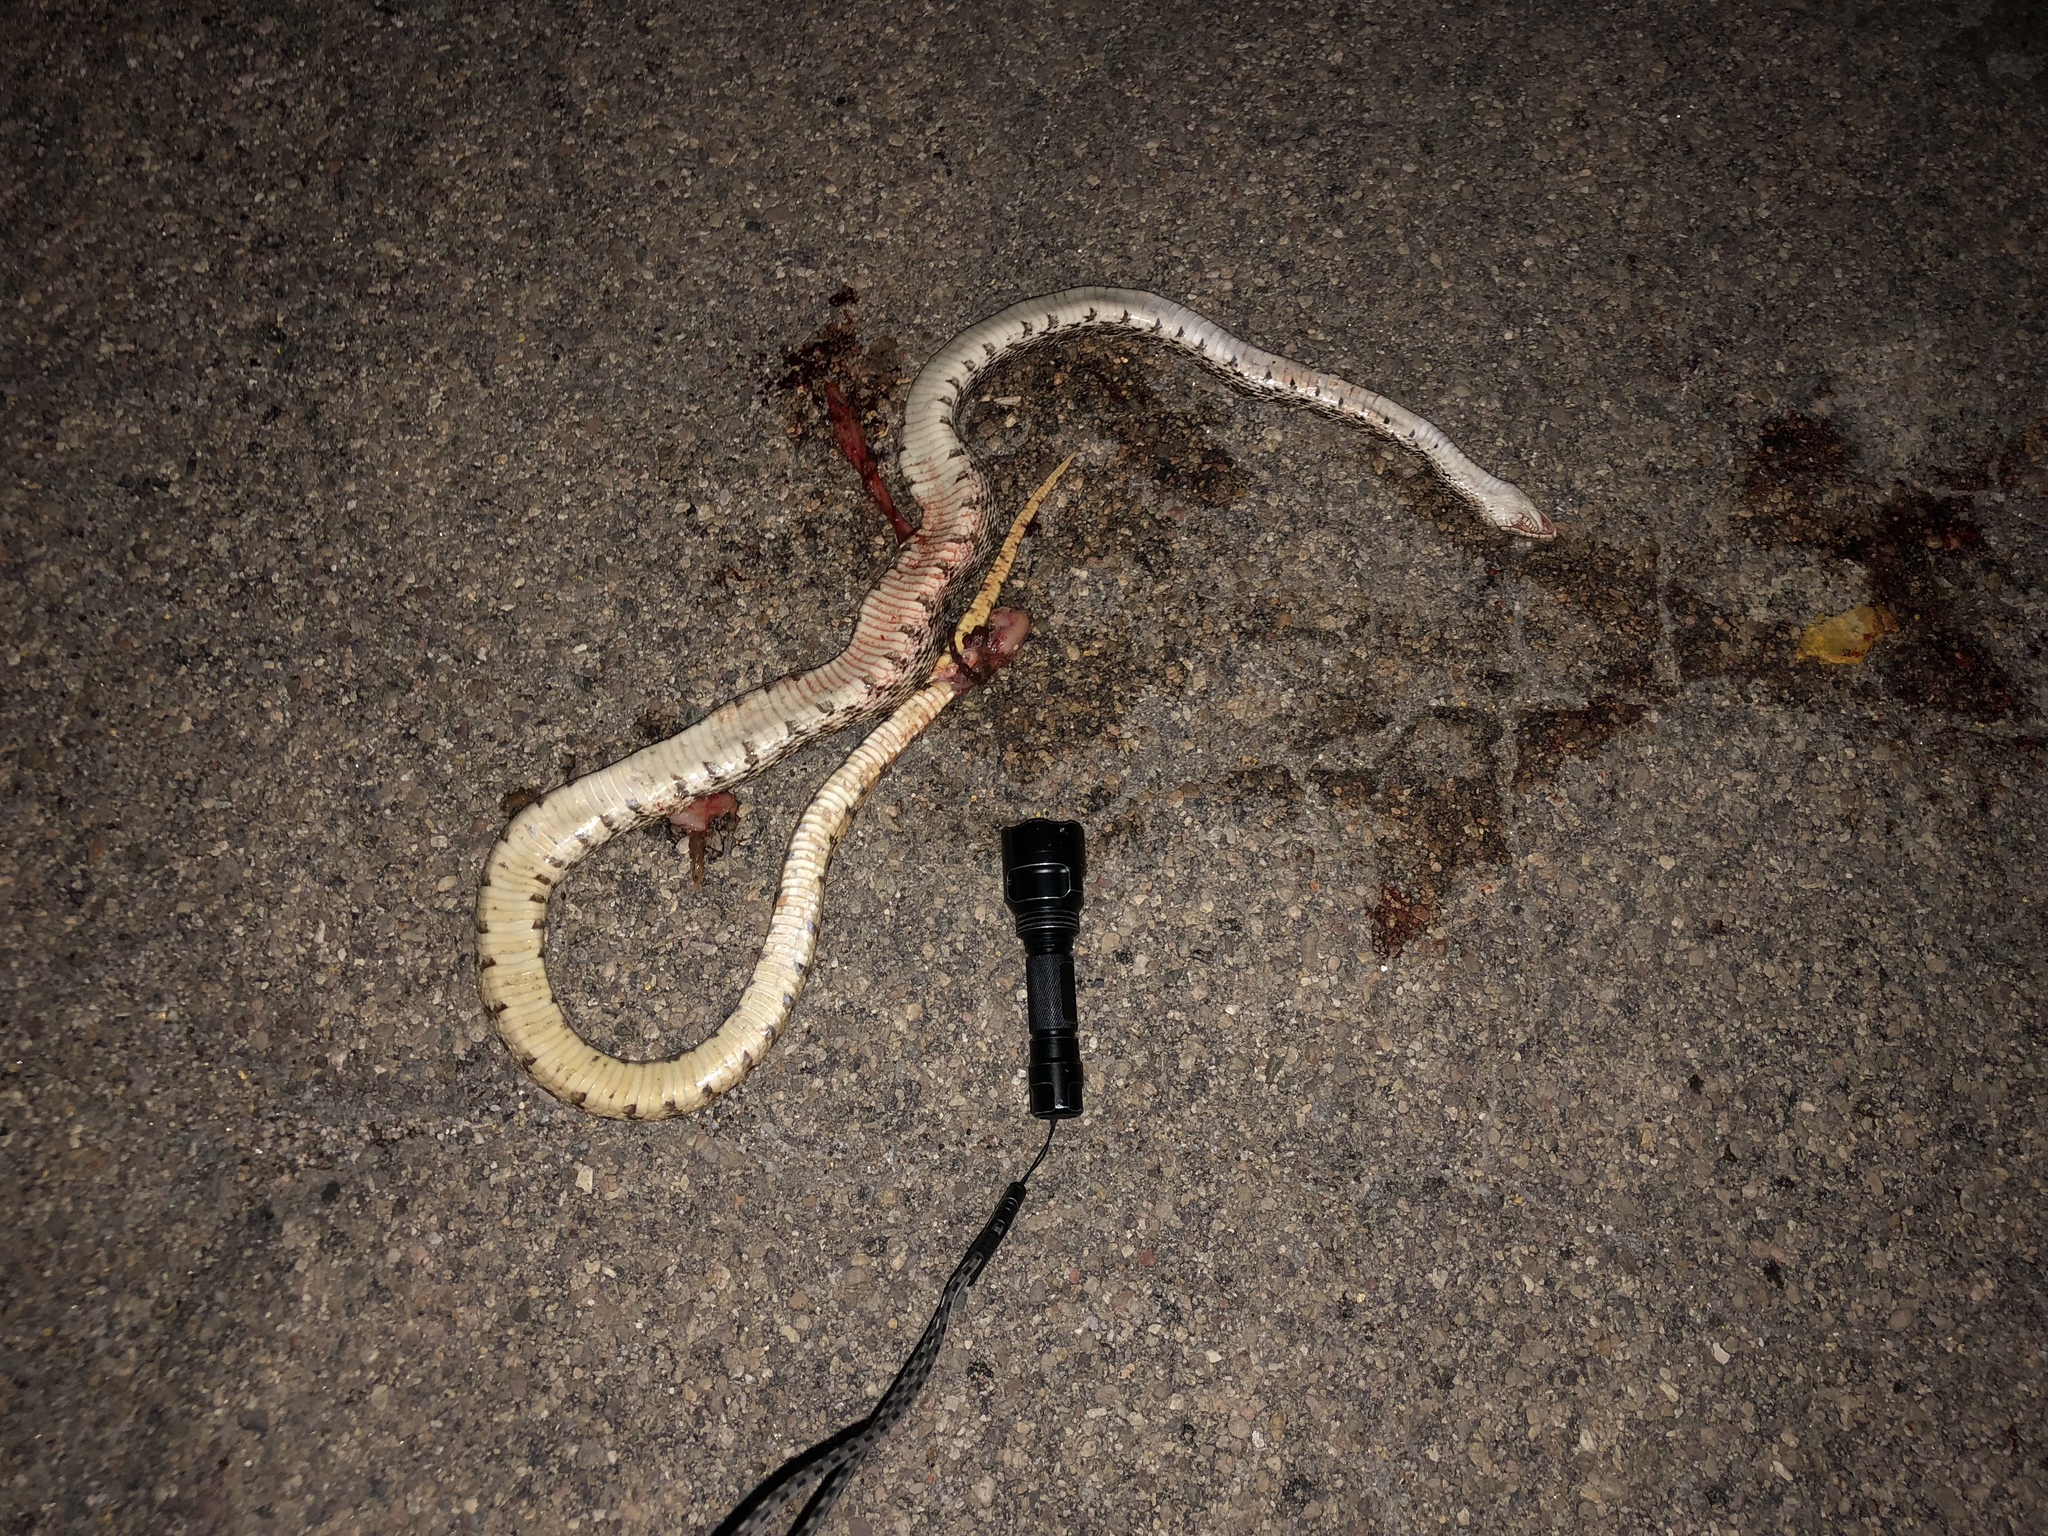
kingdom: Animalia
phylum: Chordata
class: Squamata
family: Colubridae
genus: Pituophis
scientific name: Pituophis catenifer
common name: Gopher snake
